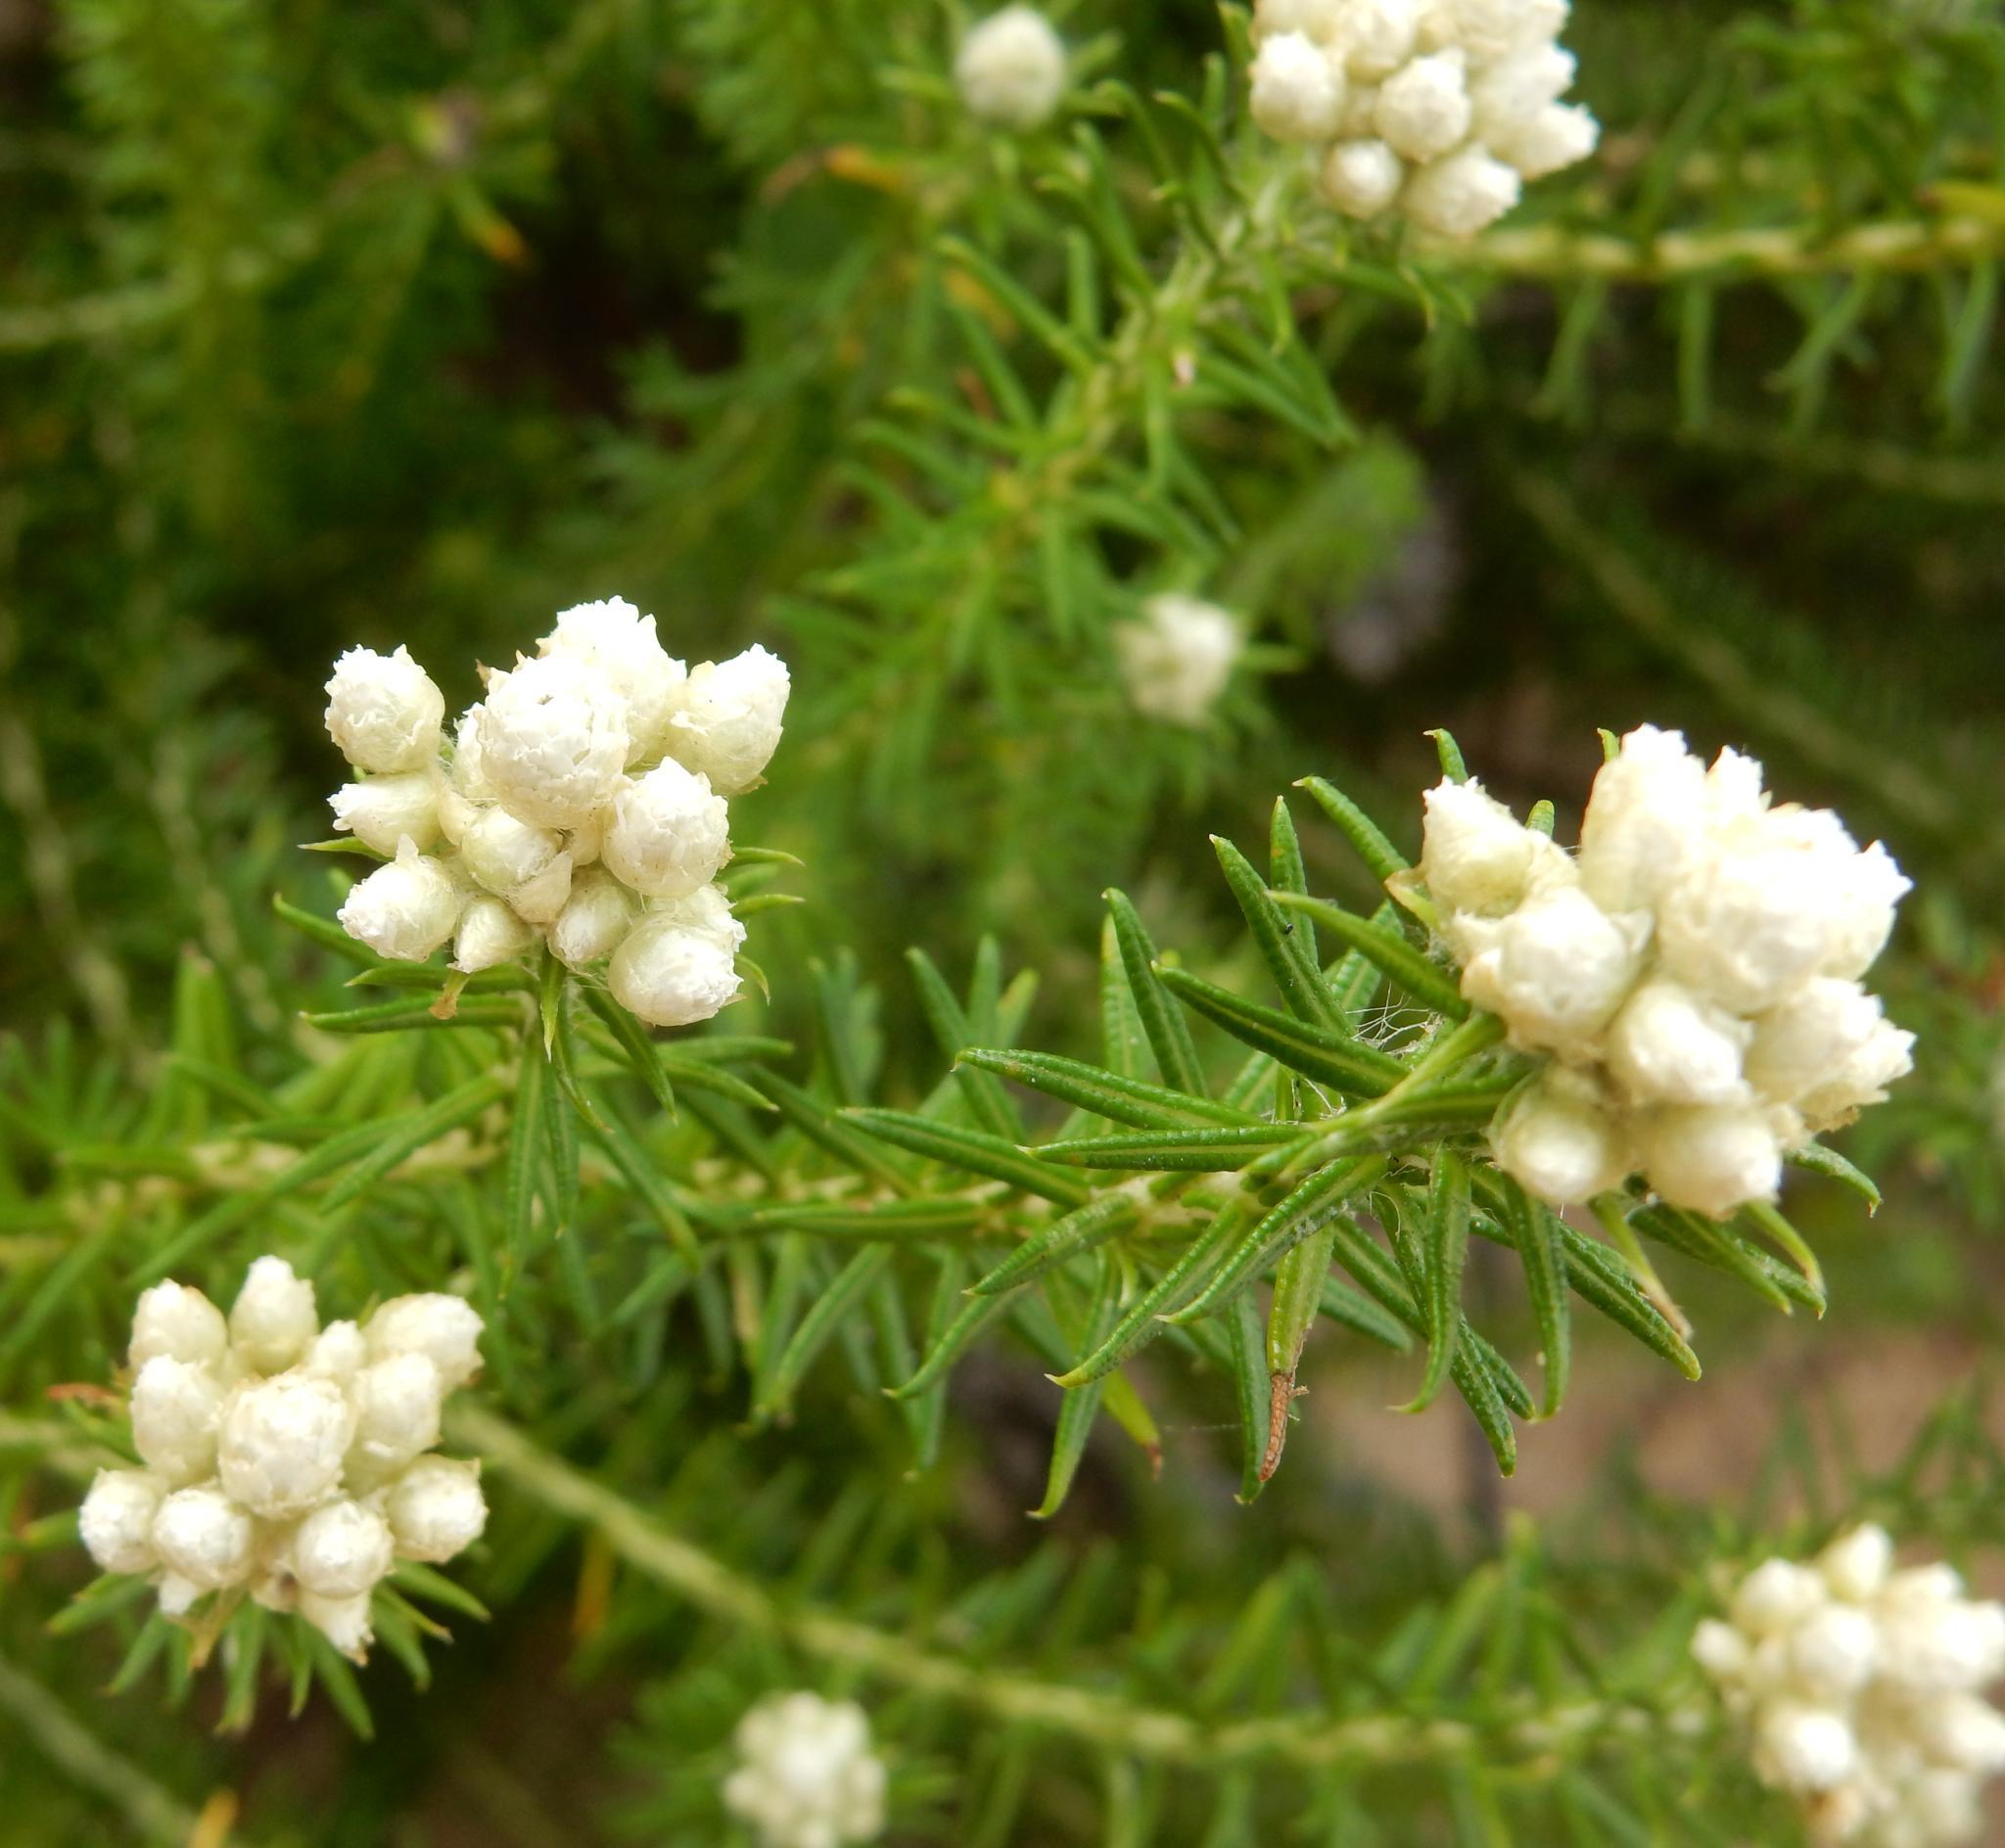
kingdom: Plantae
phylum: Tracheophyta
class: Magnoliopsida
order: Asterales
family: Asteraceae
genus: Helichrysum
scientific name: Helichrysum teretifolium
